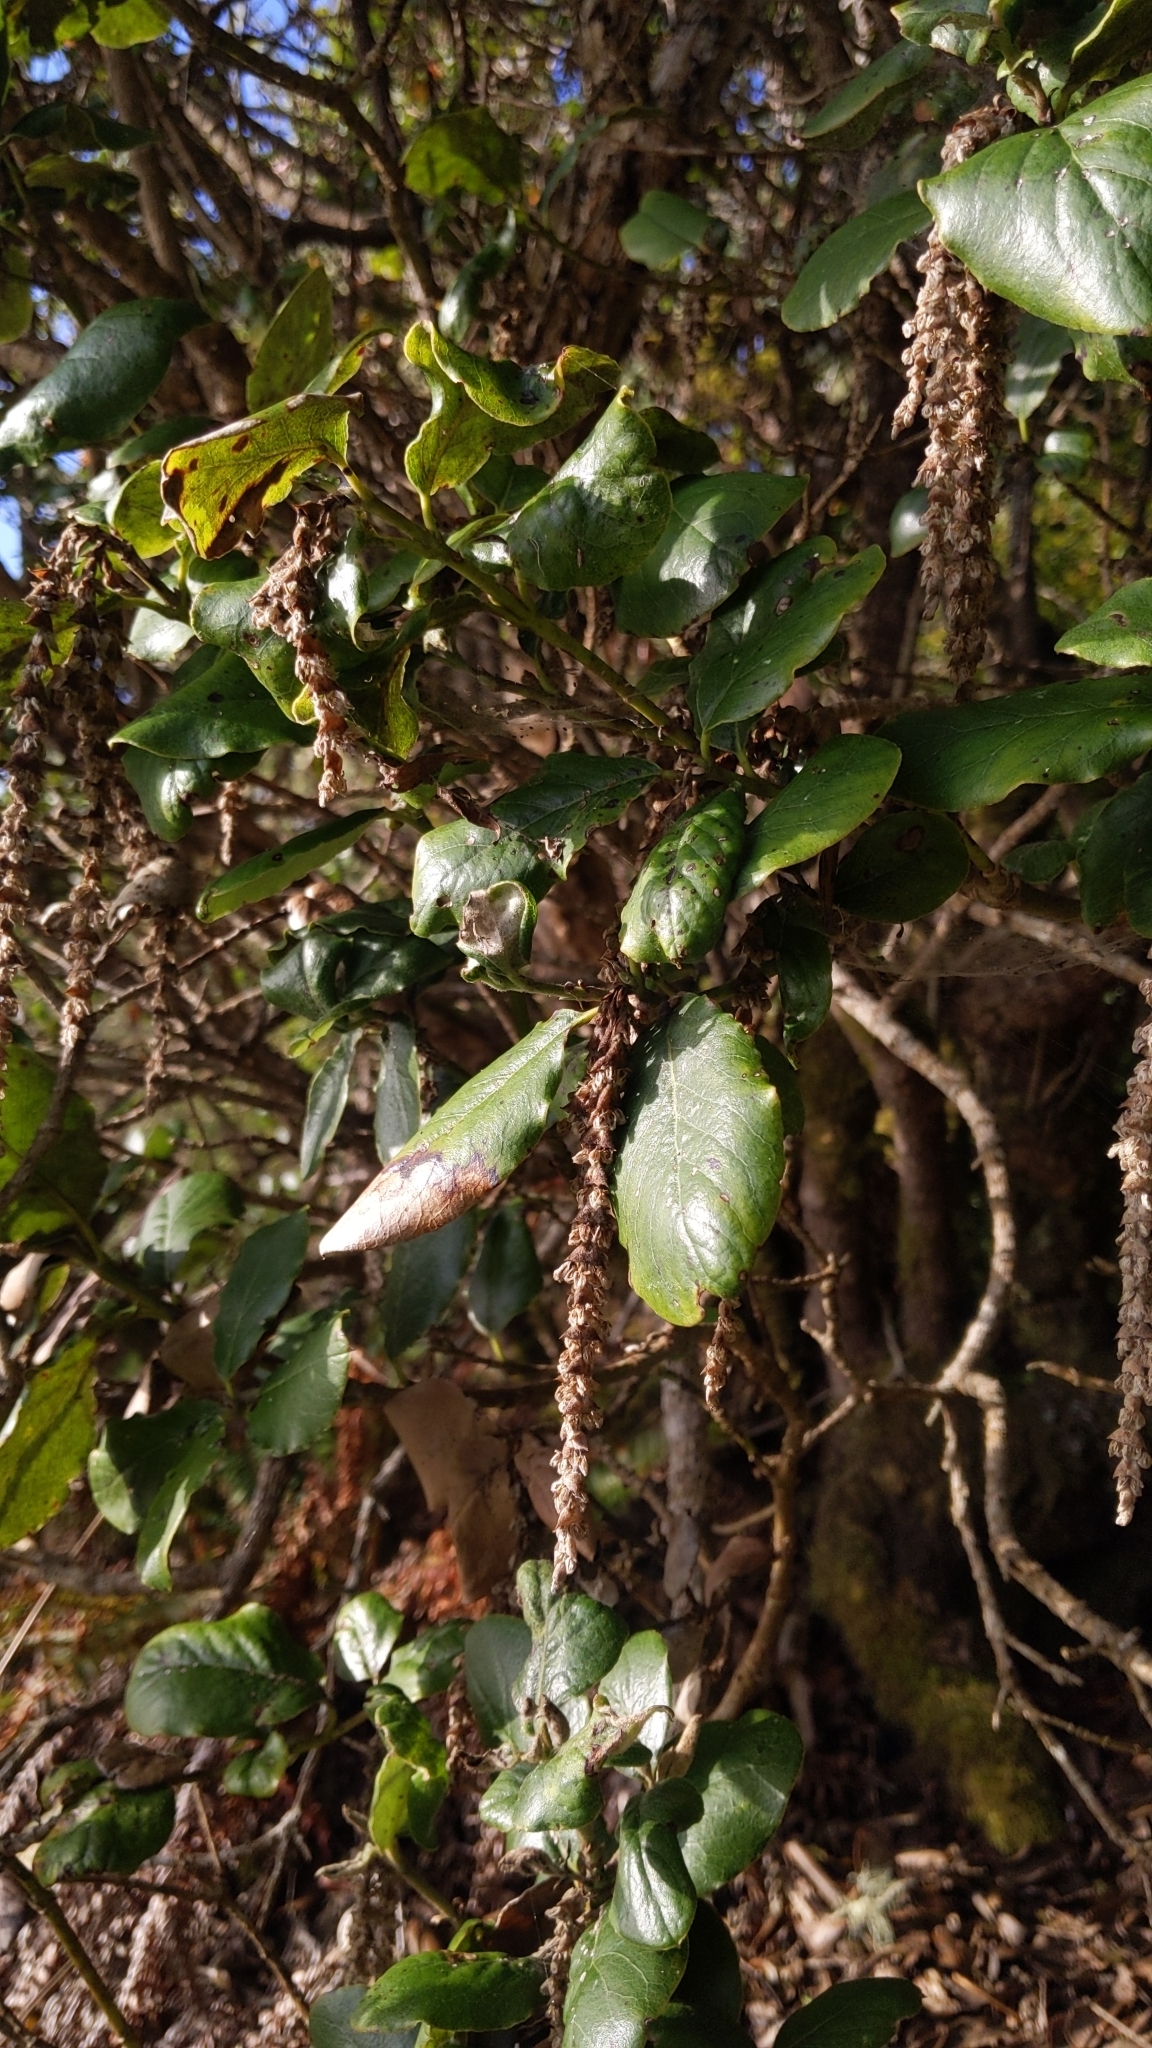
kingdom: Plantae
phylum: Tracheophyta
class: Magnoliopsida
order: Garryales
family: Garryaceae
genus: Garrya
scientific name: Garrya elliptica
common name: Silk-tassel
